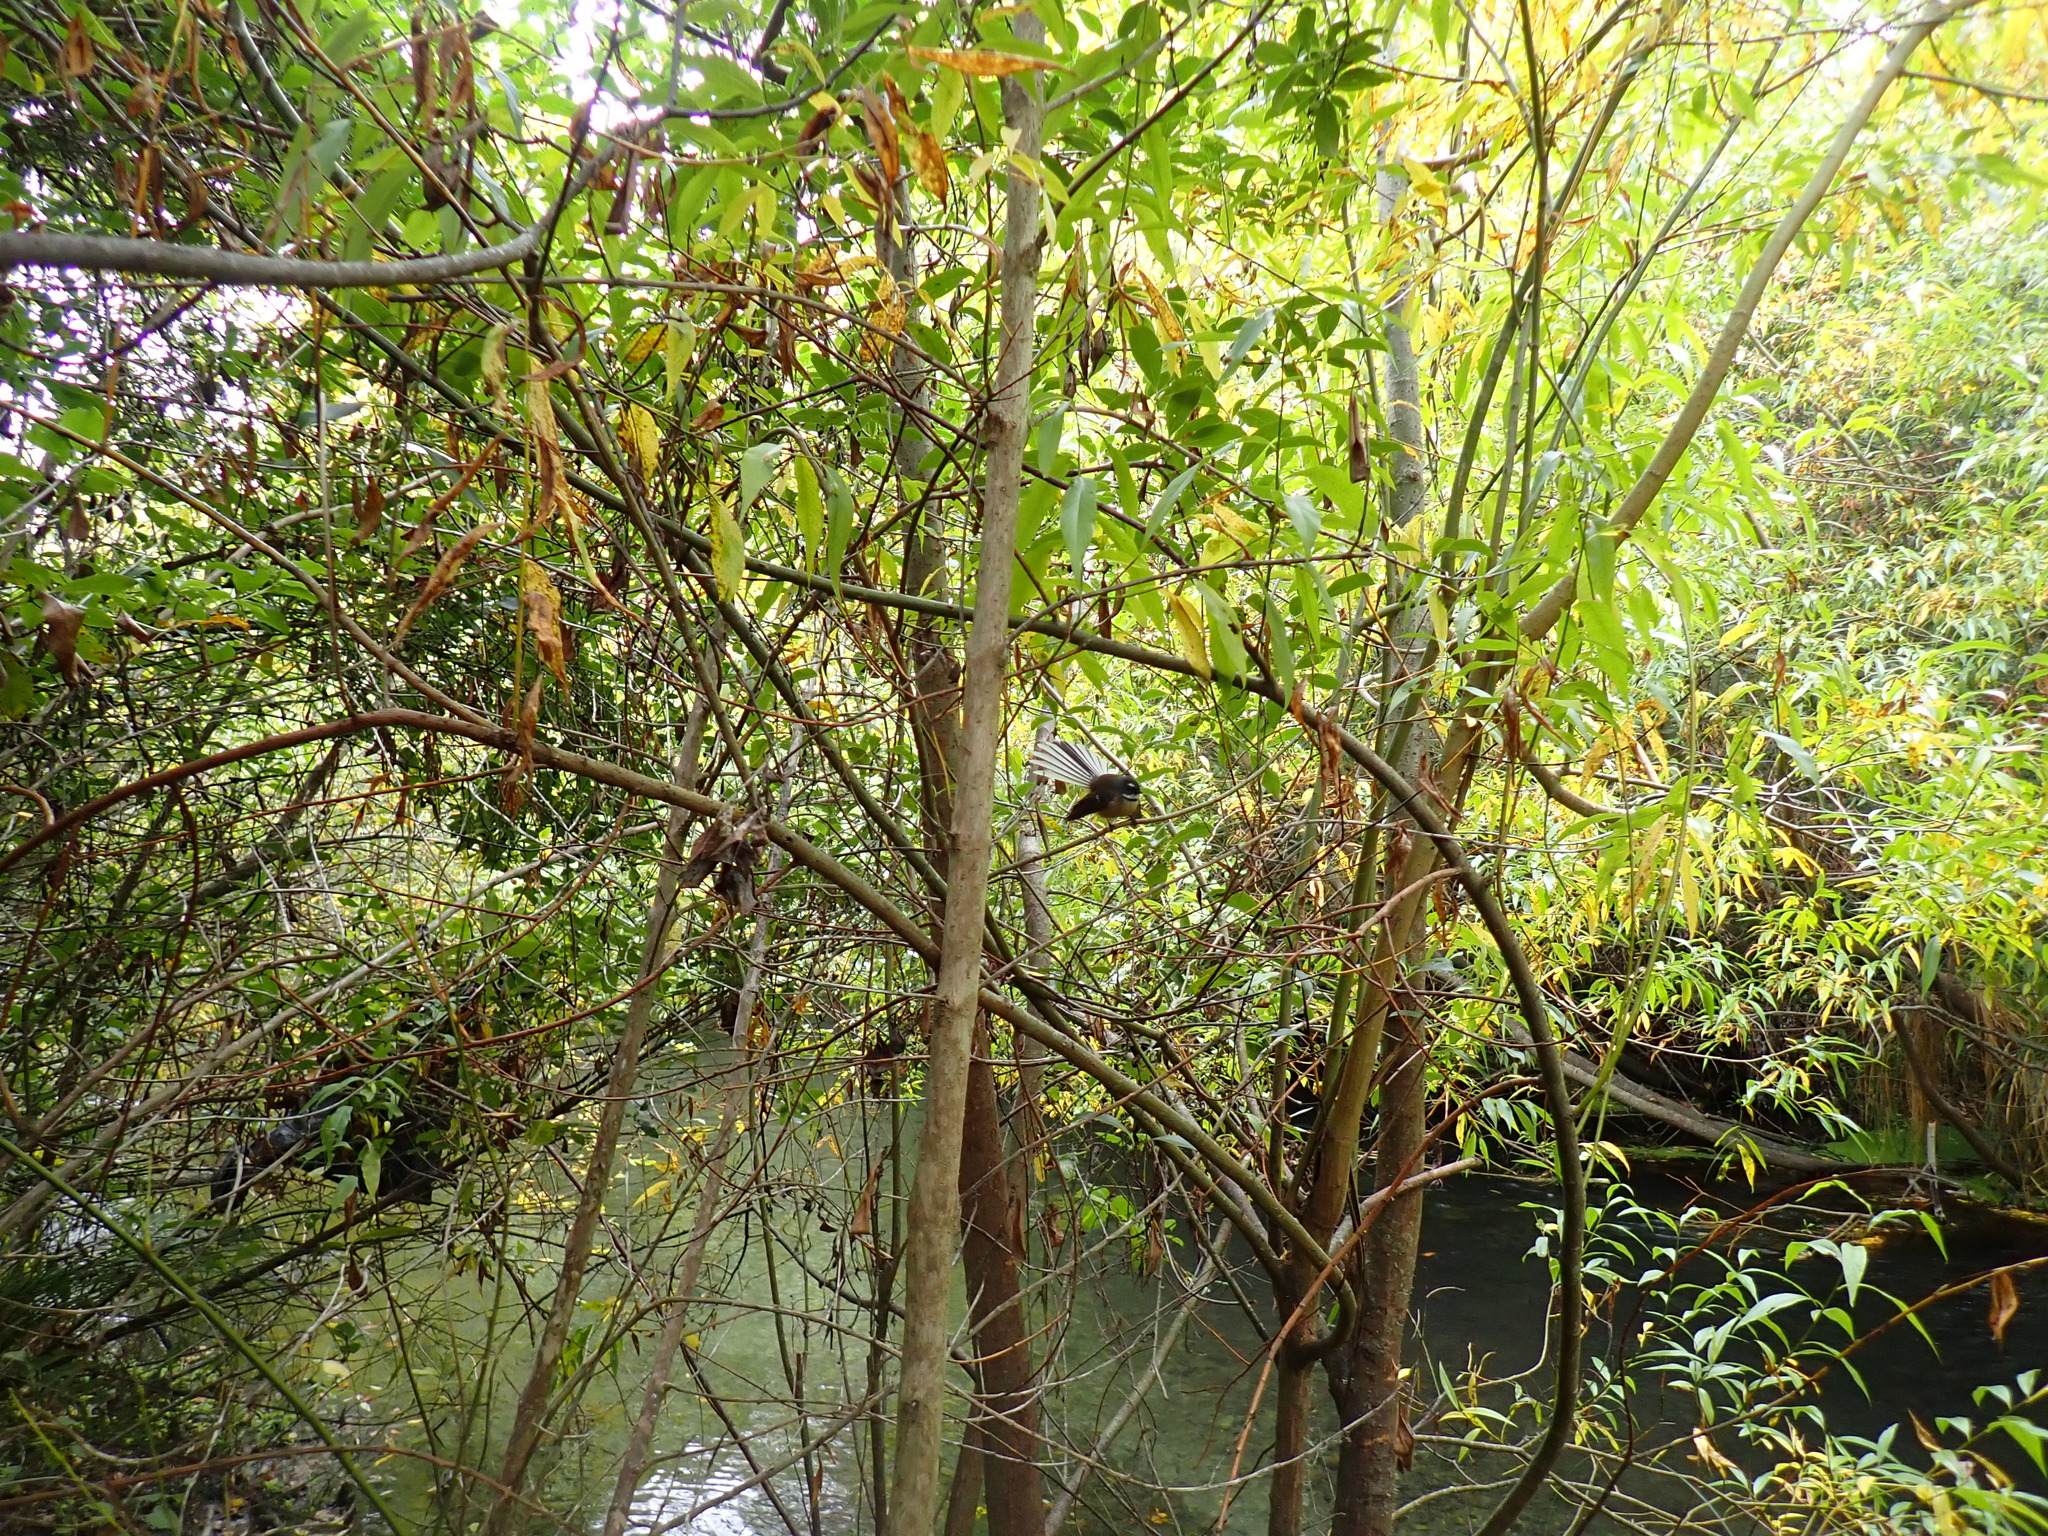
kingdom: Animalia
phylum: Chordata
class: Aves
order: Passeriformes
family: Rhipiduridae
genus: Rhipidura
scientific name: Rhipidura fuliginosa
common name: New zealand fantail
